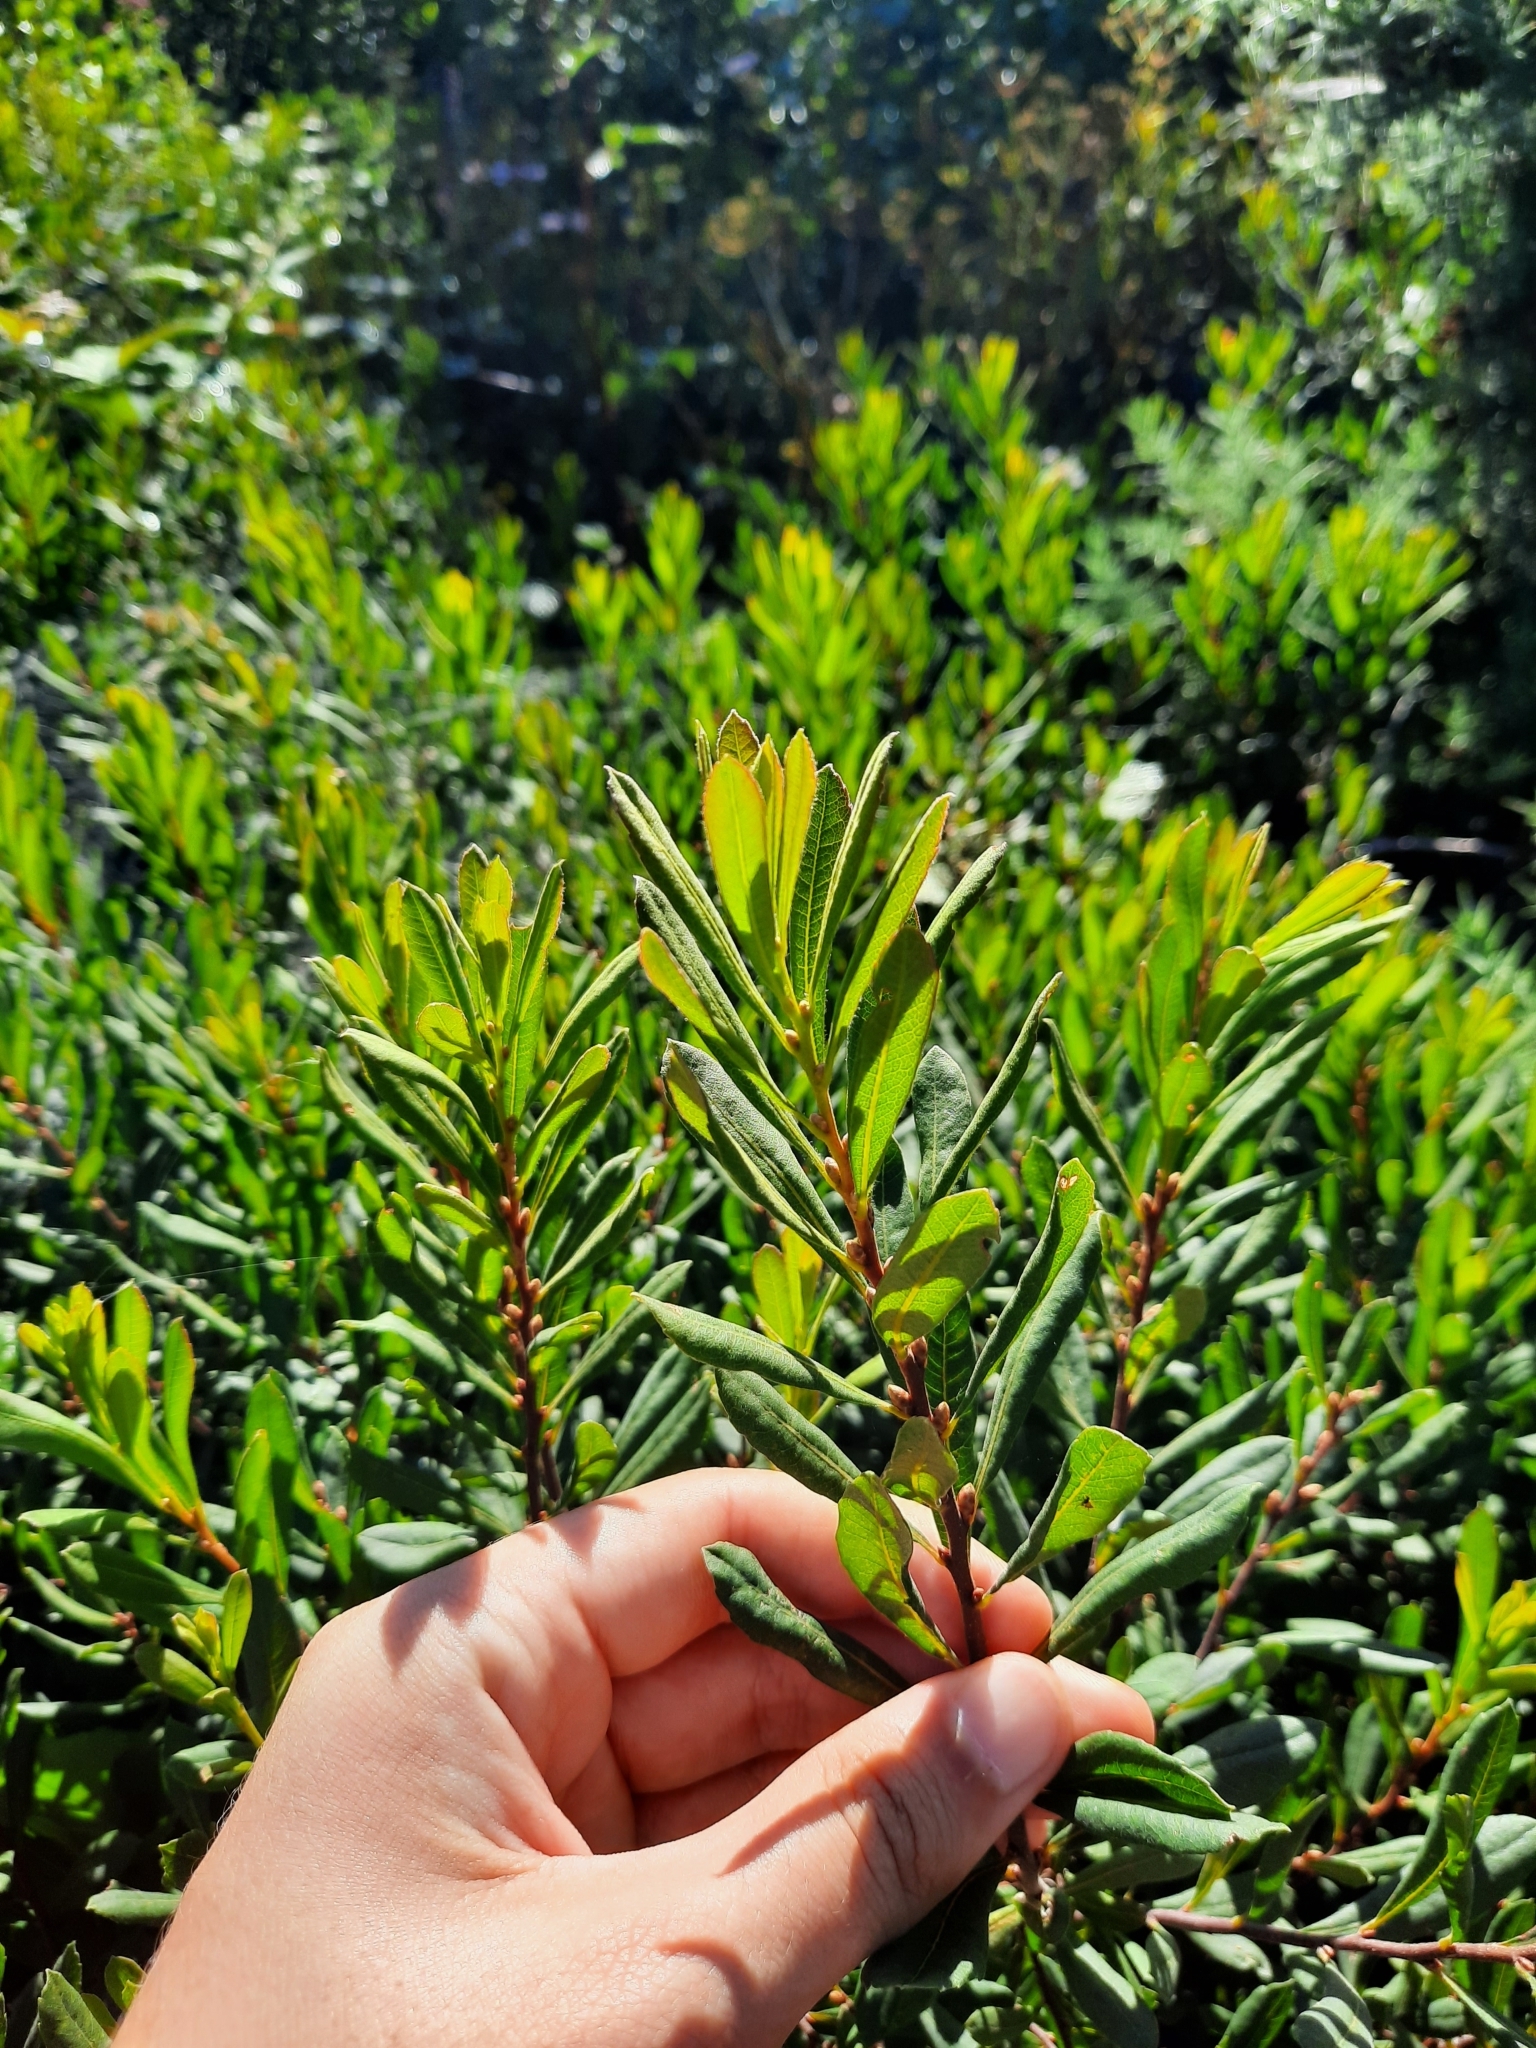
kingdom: Plantae
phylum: Tracheophyta
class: Magnoliopsida
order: Fagales
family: Myricaceae
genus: Myrica
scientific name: Myrica gale
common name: Sweet gale
